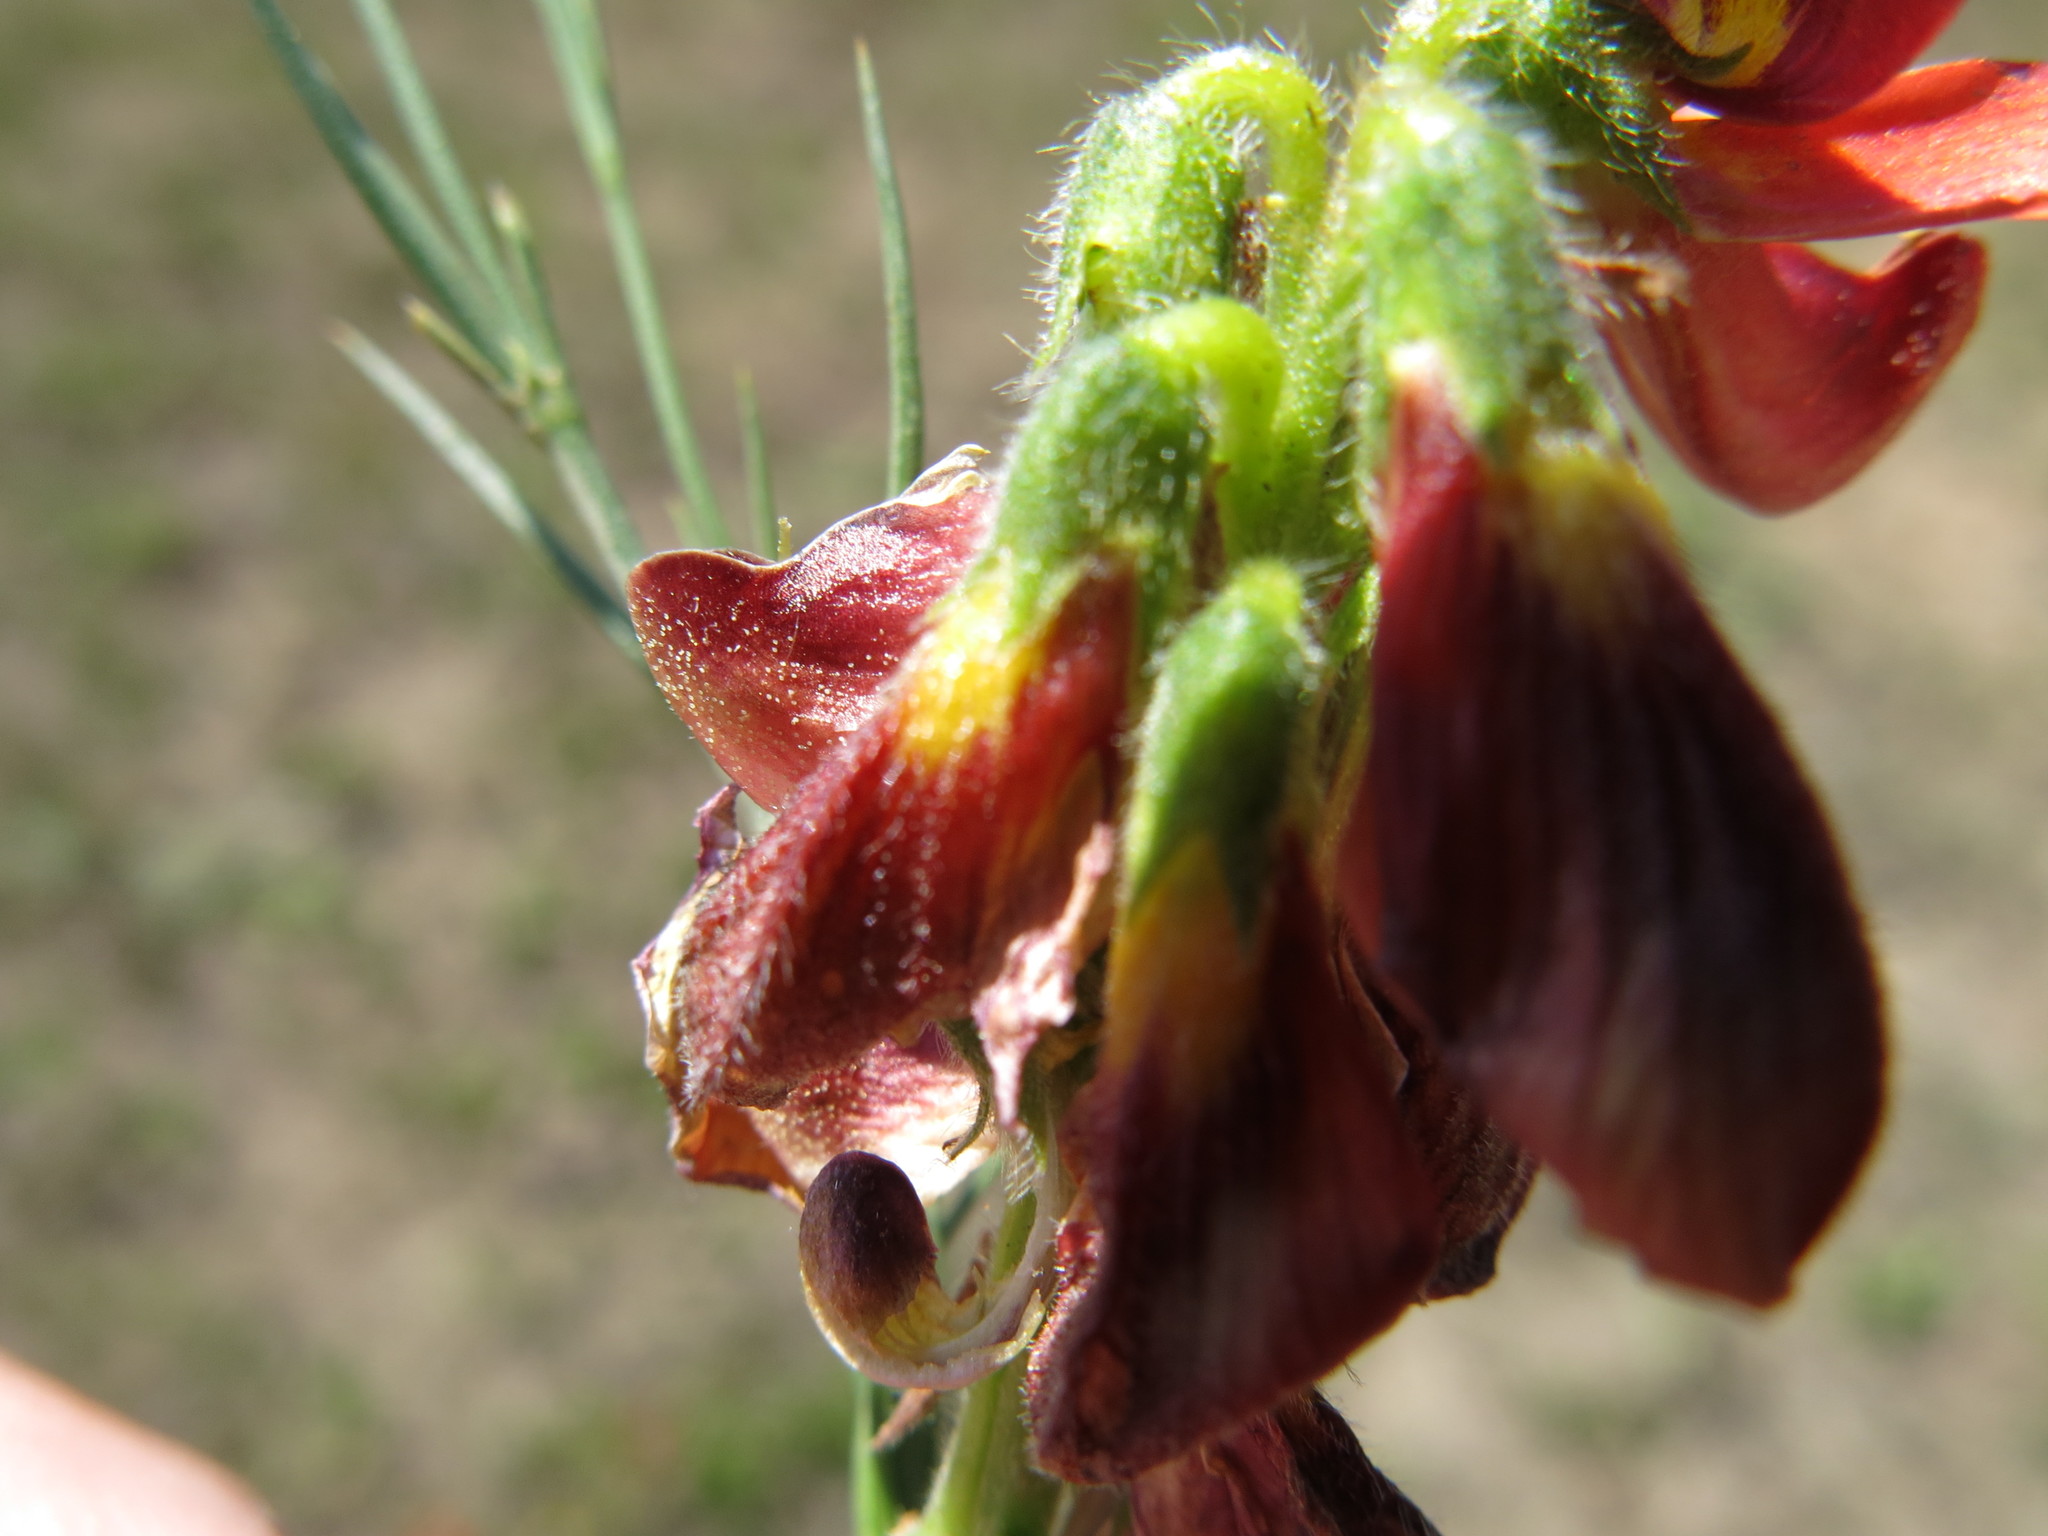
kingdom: Plantae
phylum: Tracheophyta
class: Magnoliopsida
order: Fabales
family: Fabaceae
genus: Eriosema
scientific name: Eriosema distinctum
